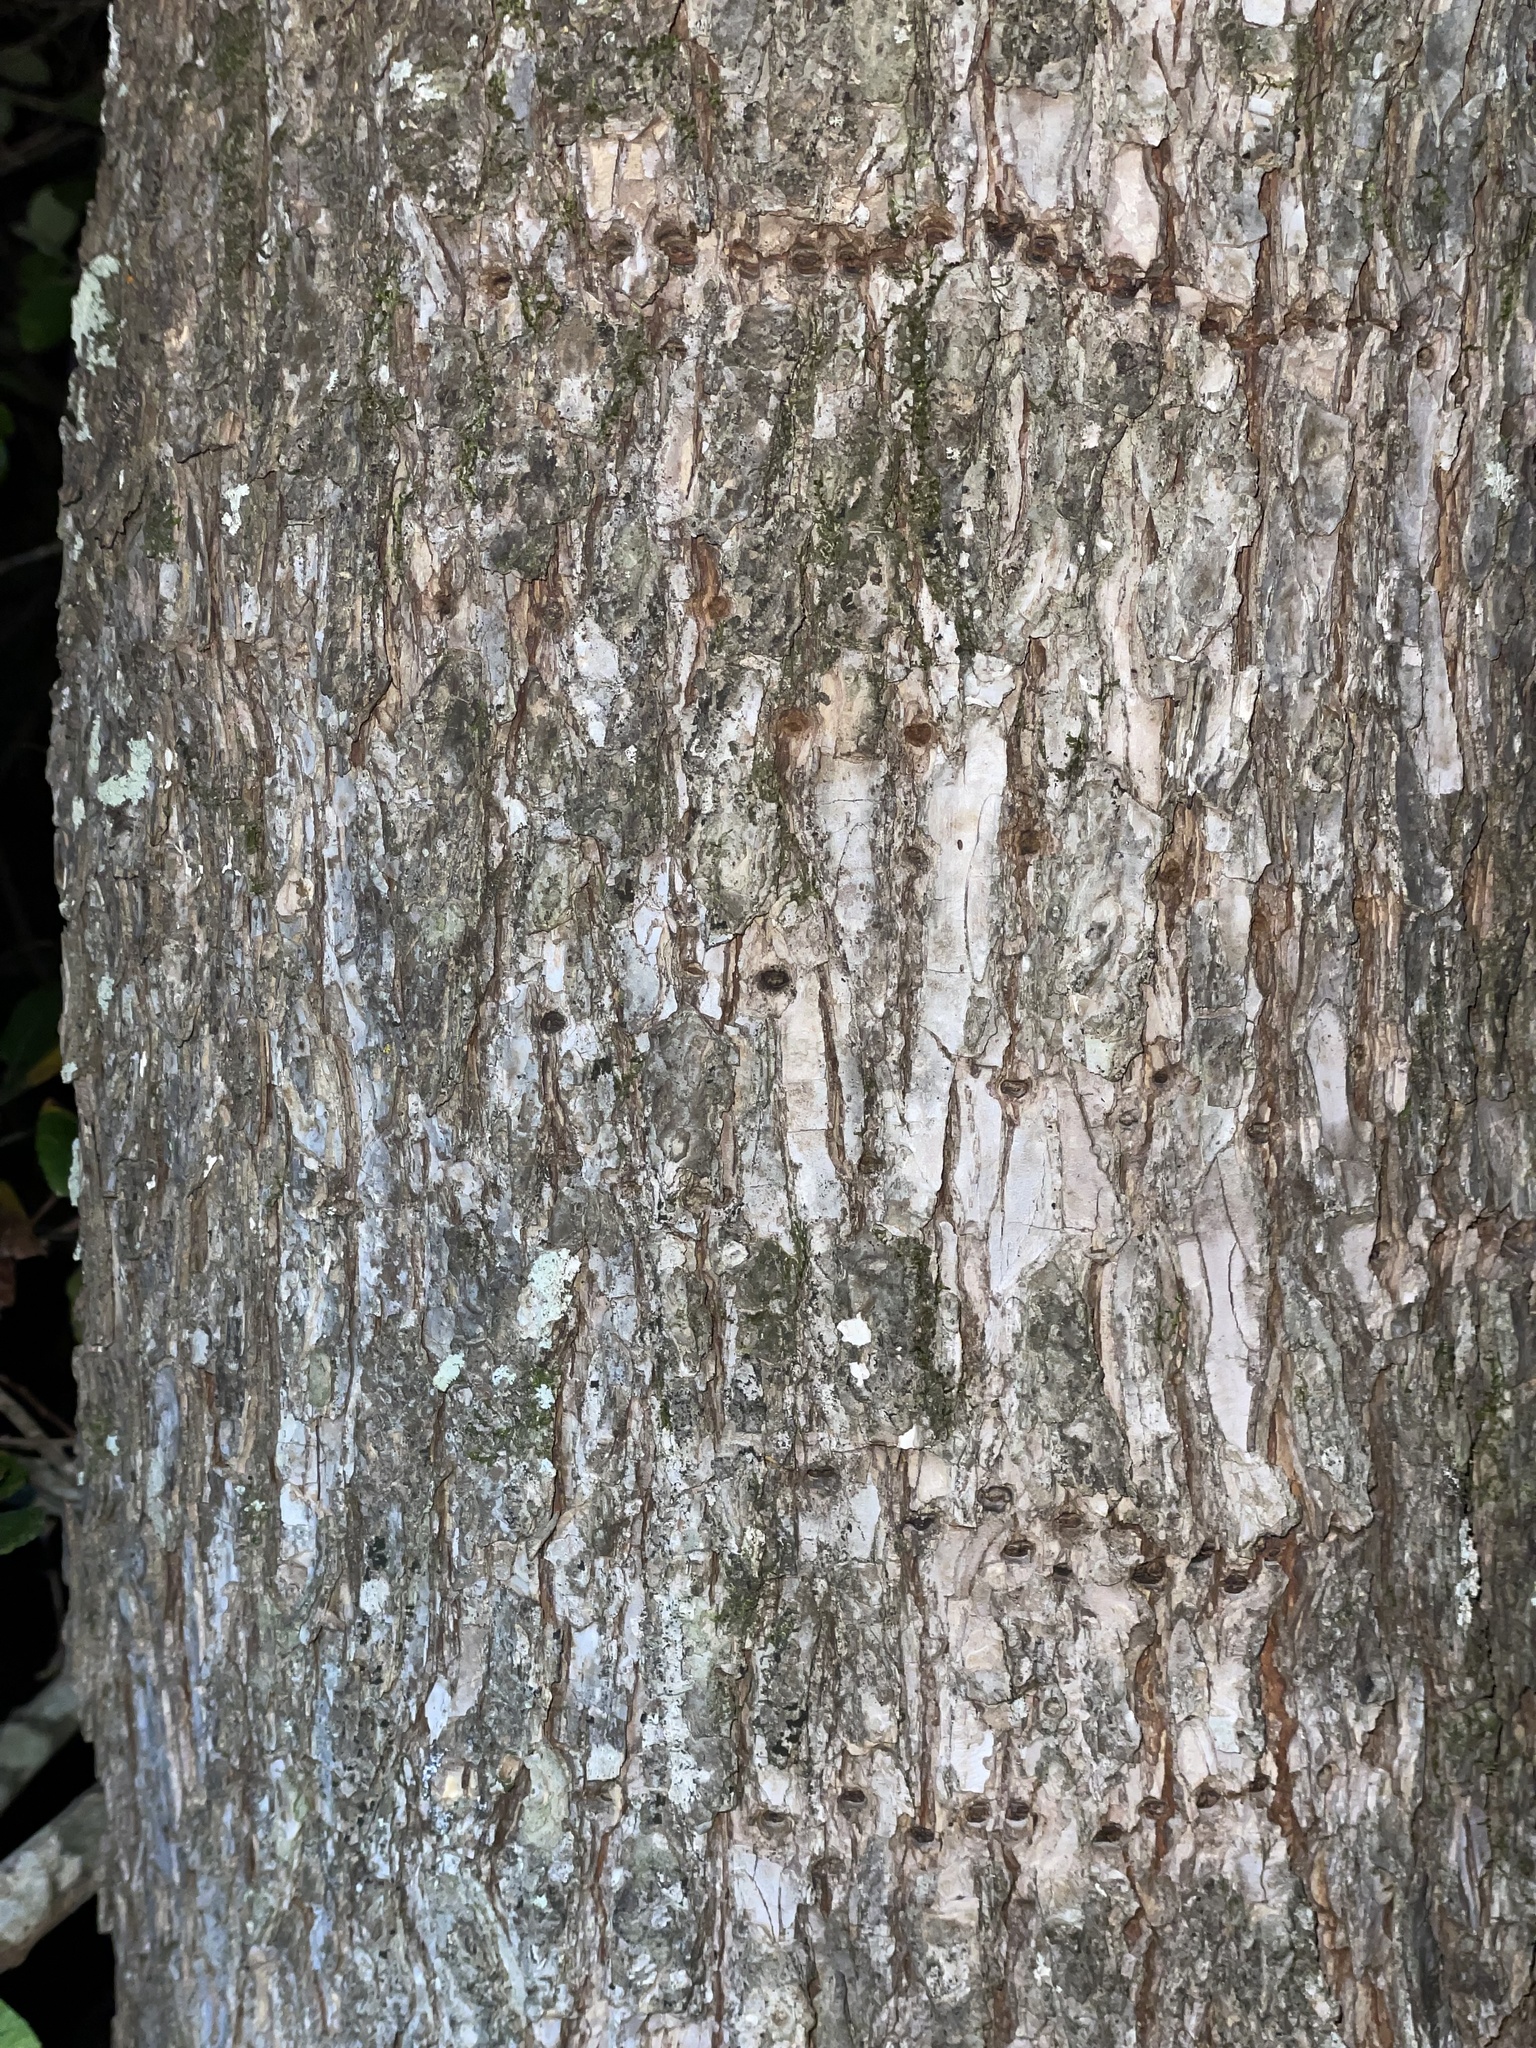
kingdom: Plantae
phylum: Tracheophyta
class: Magnoliopsida
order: Rosales
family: Ulmaceae
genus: Ulmus
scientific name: Ulmus crassifolia
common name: Basket elm
